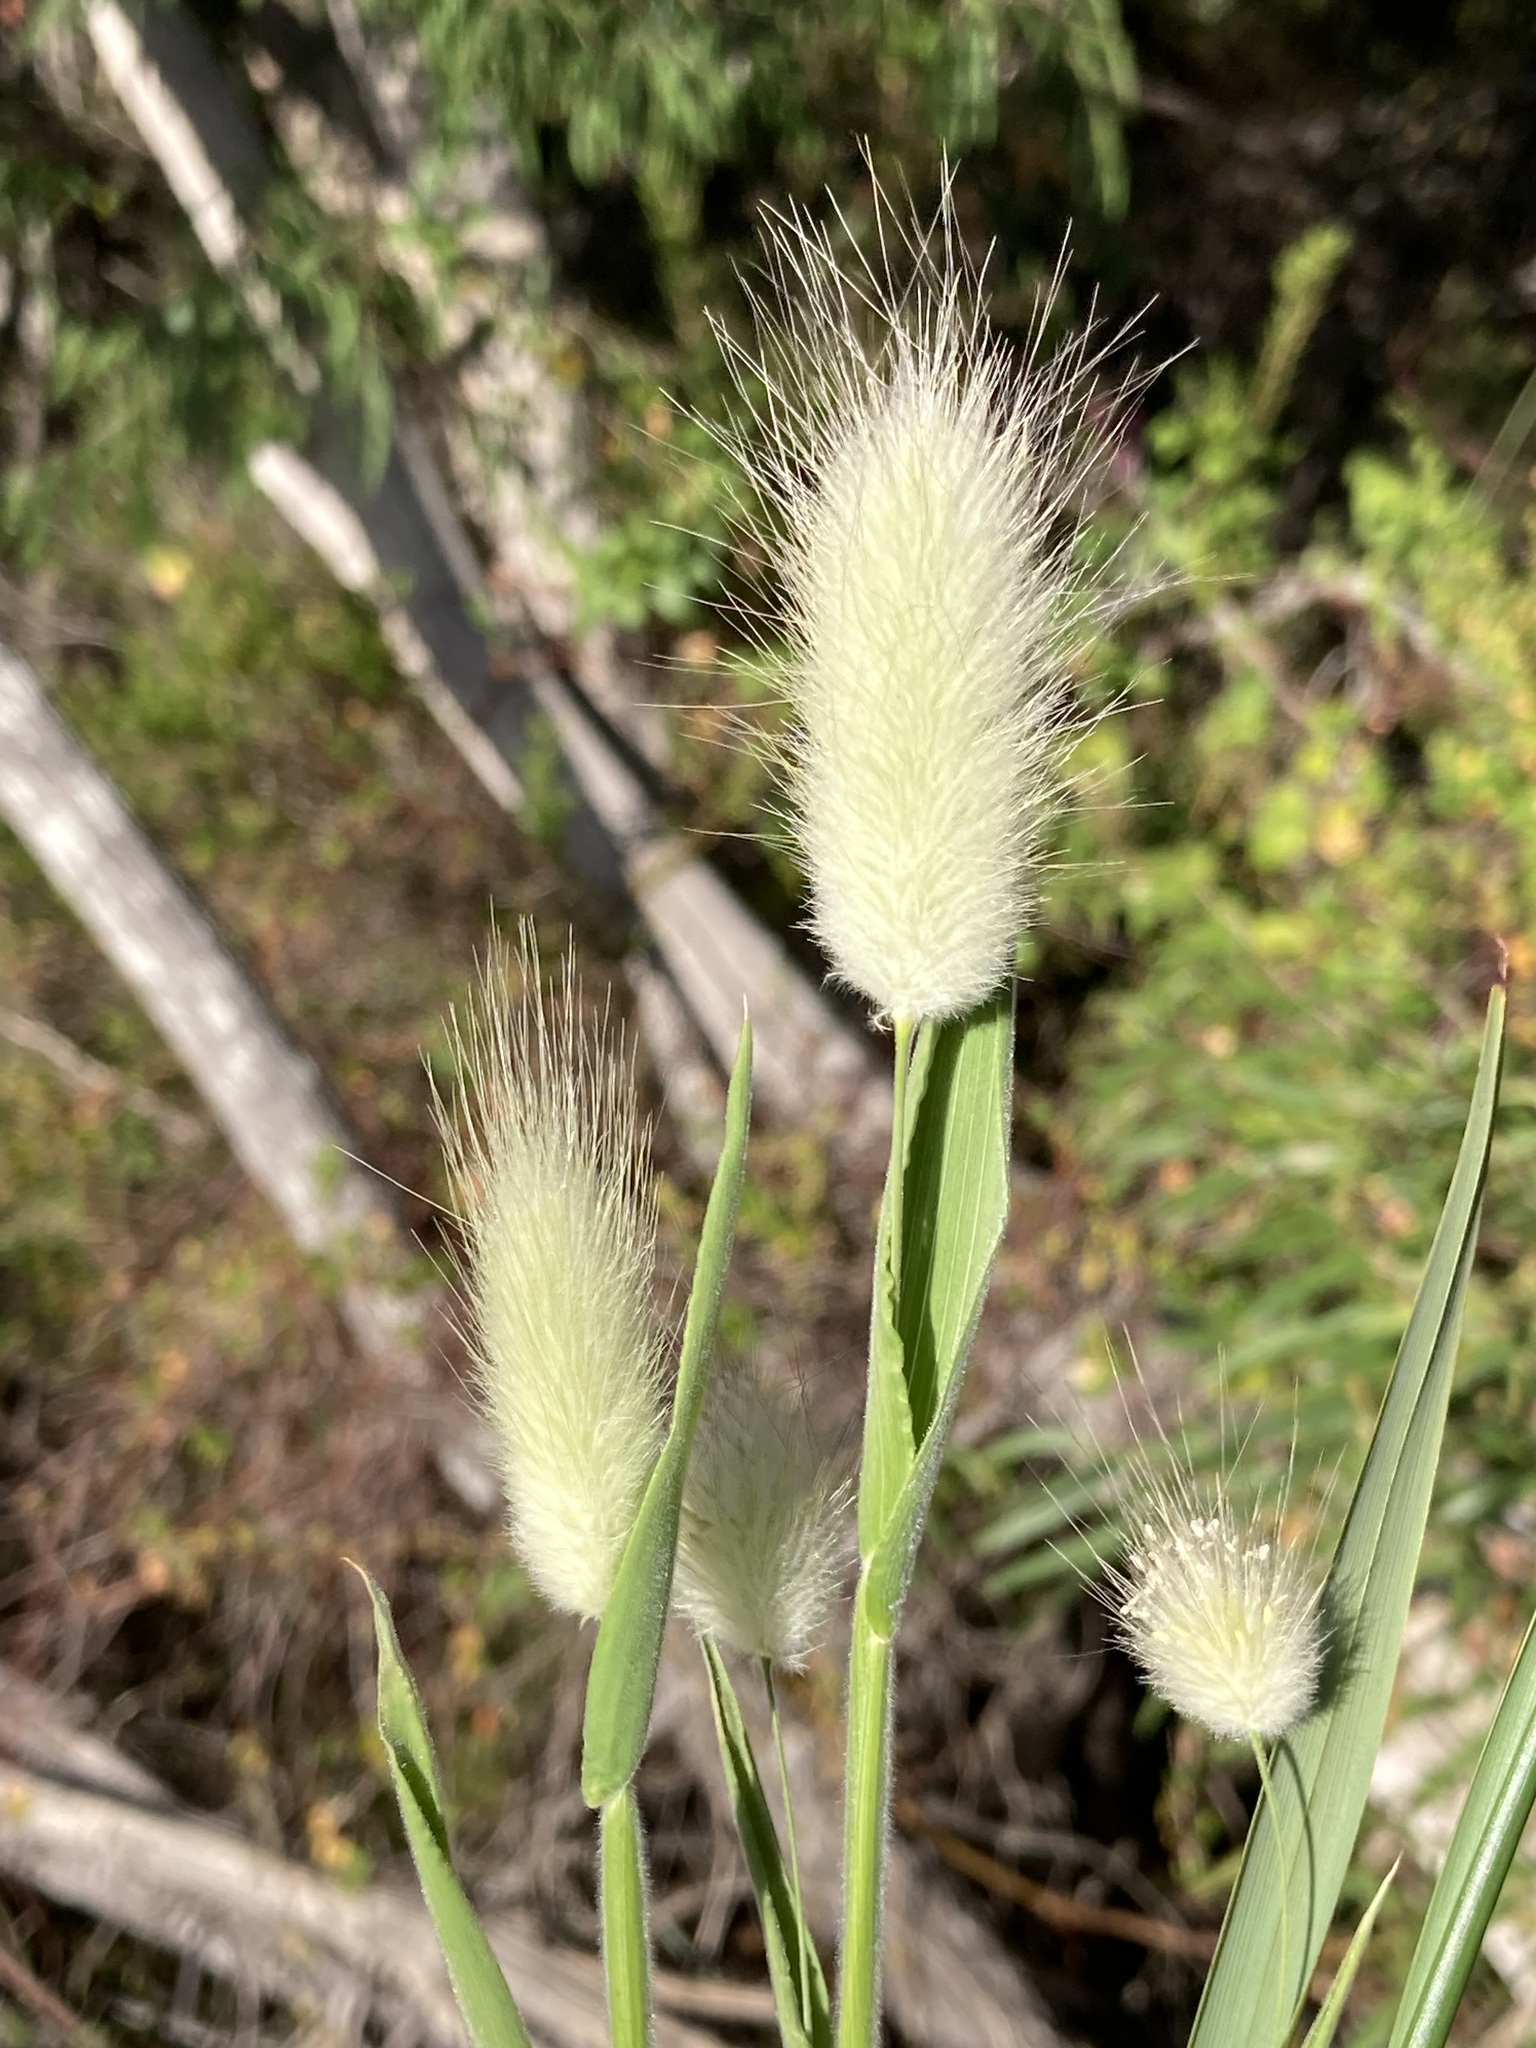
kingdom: Plantae
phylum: Tracheophyta
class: Liliopsida
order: Poales
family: Poaceae
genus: Lagurus
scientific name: Lagurus ovatus
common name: Hare's-tail
